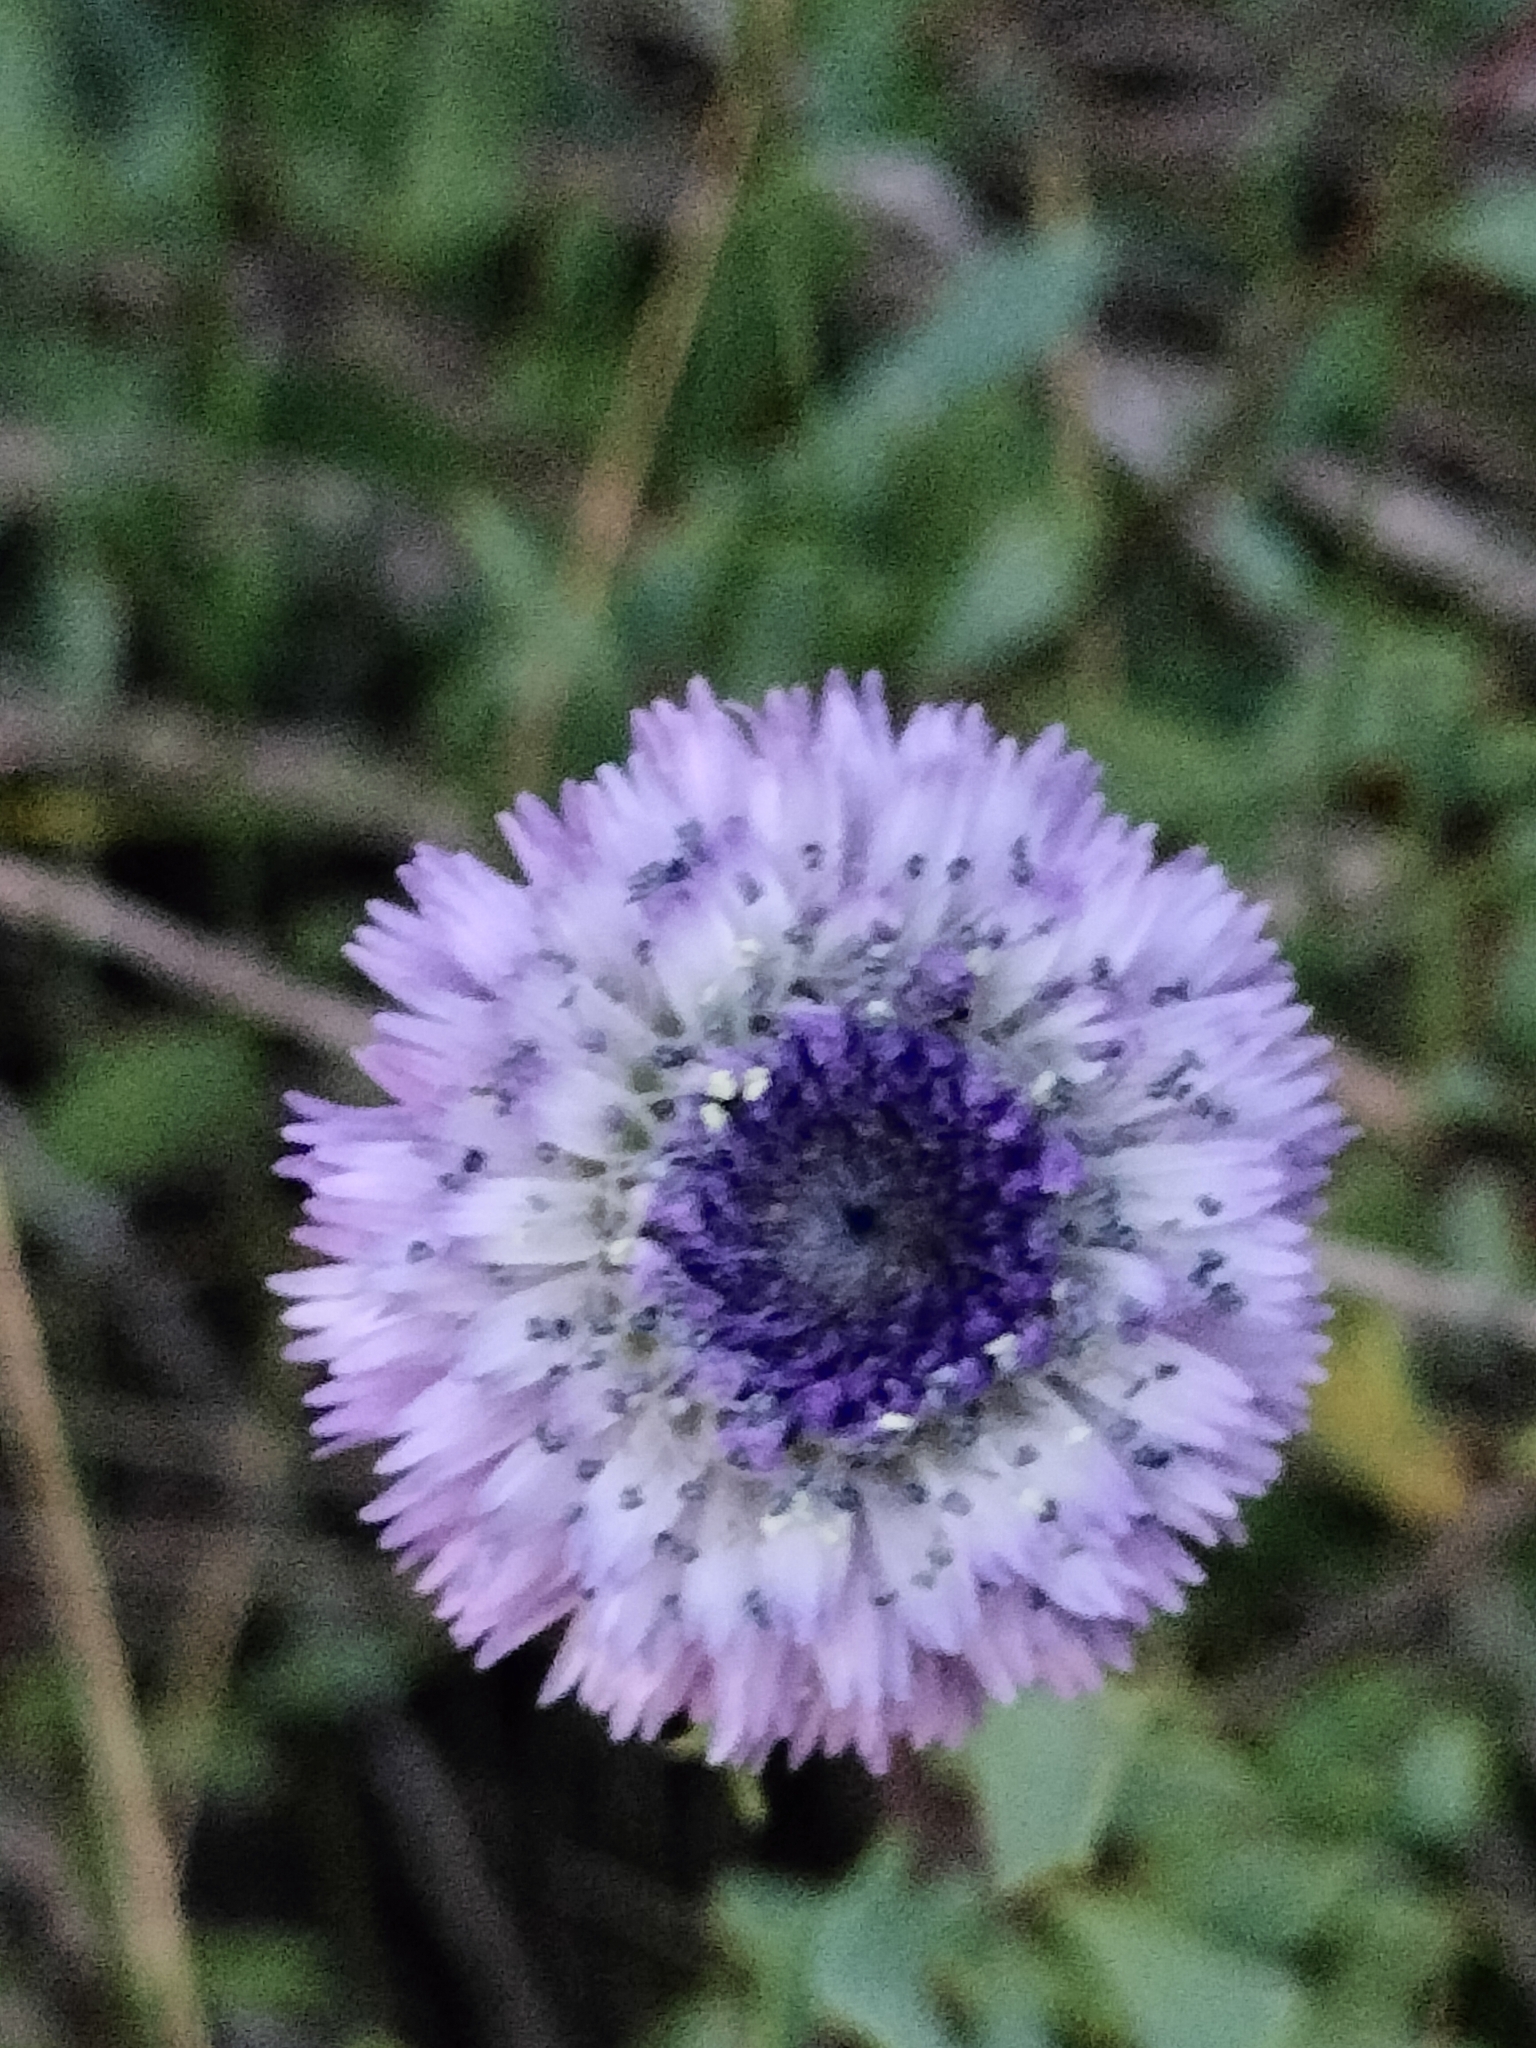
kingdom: Plantae
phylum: Tracheophyta
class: Magnoliopsida
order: Lamiales
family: Plantaginaceae
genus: Globularia
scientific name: Globularia alypum
